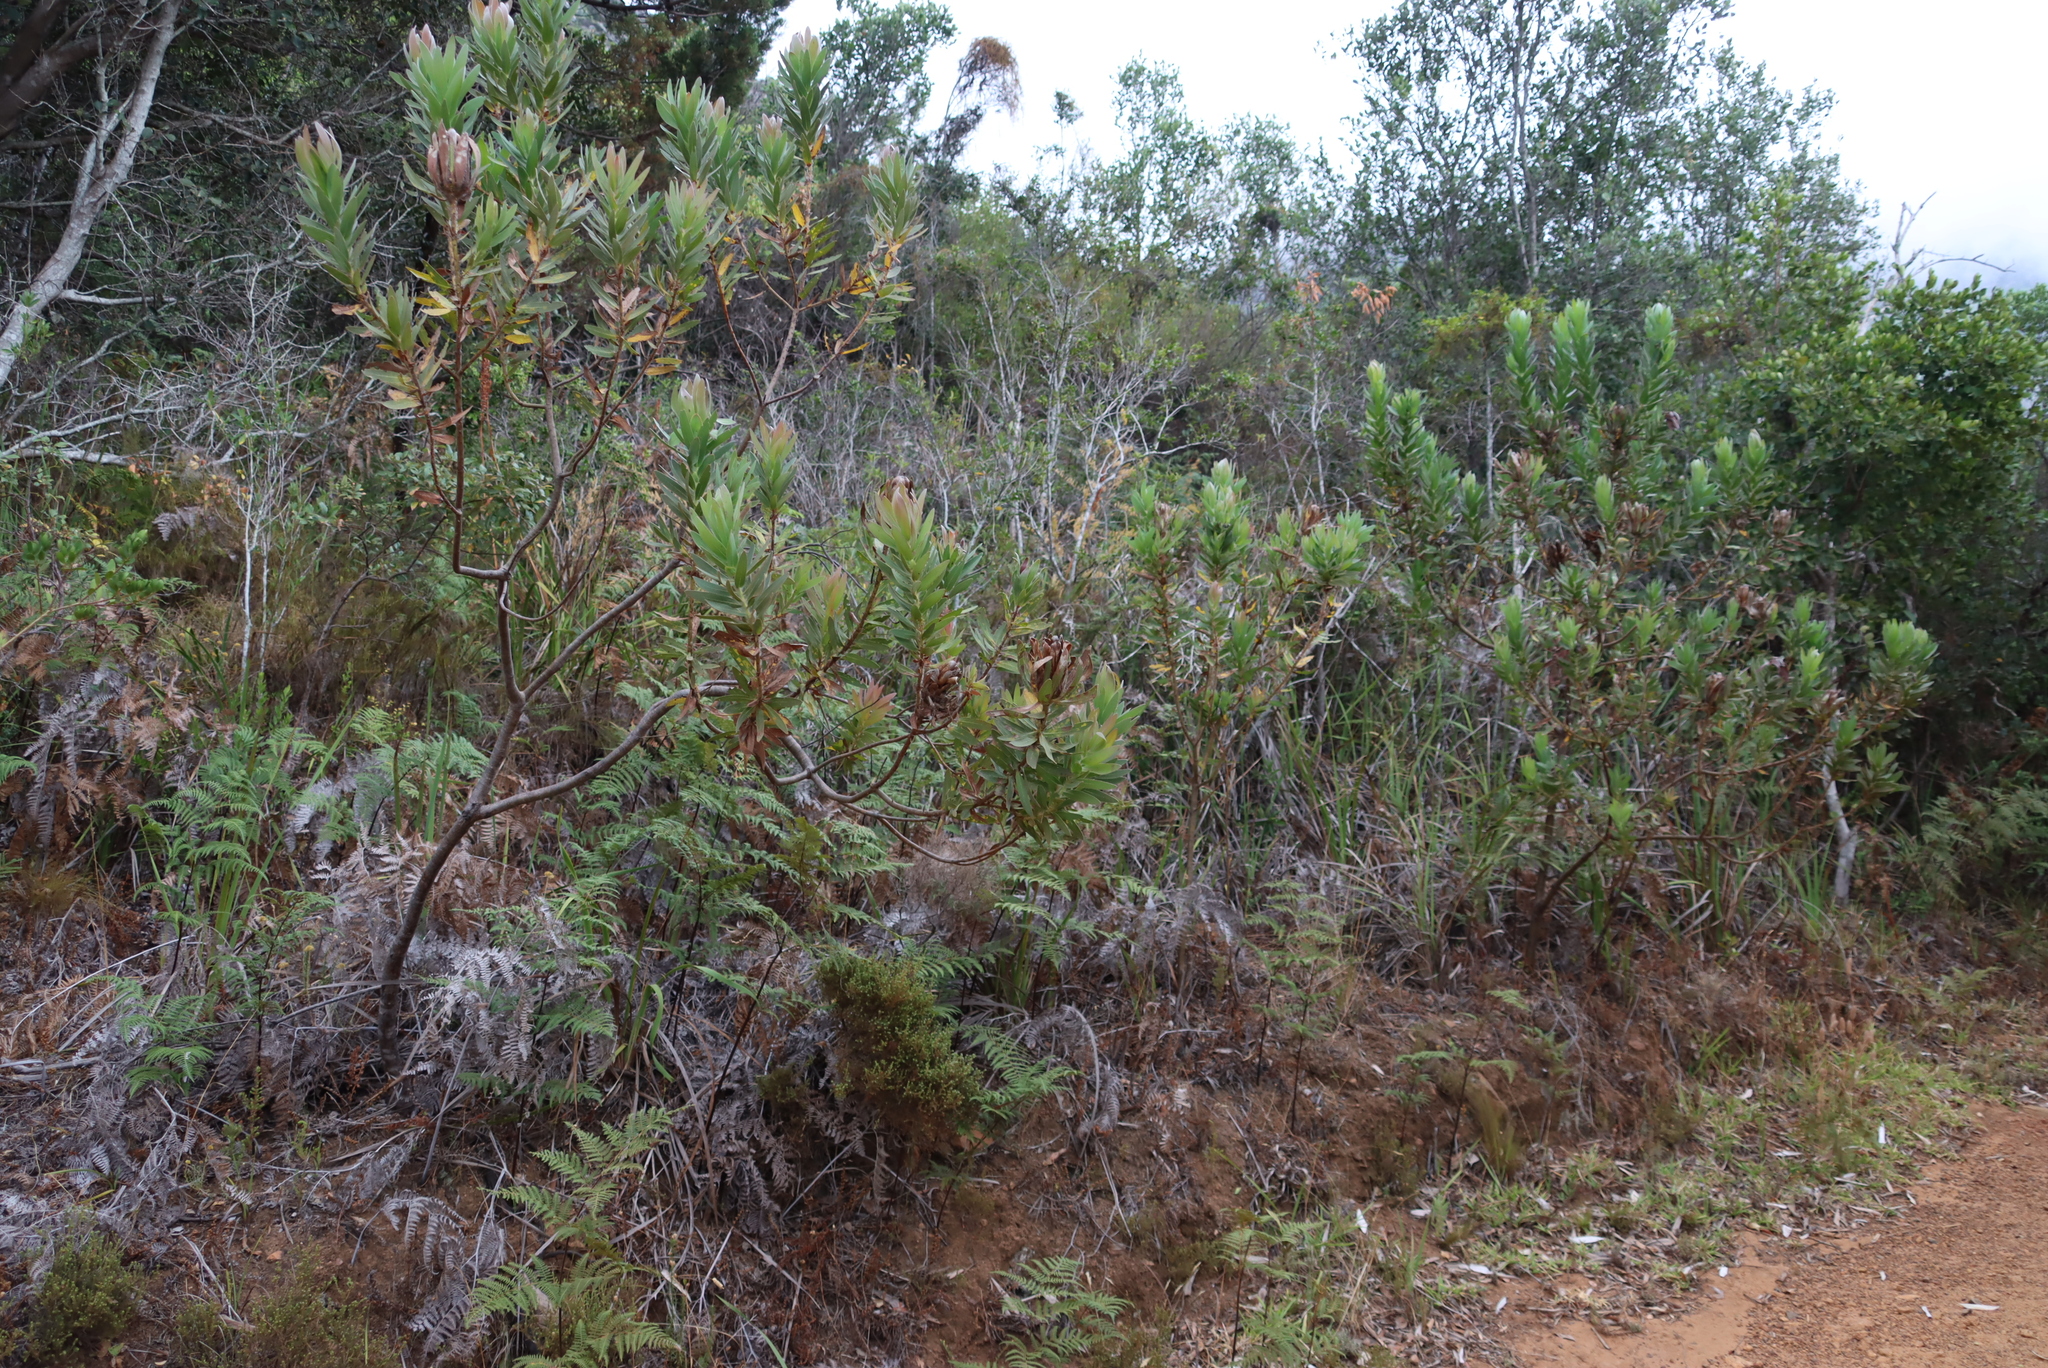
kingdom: Plantae
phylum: Tracheophyta
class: Magnoliopsida
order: Proteales
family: Proteaceae
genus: Protea
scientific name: Protea coronata
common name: Green sugarbush
